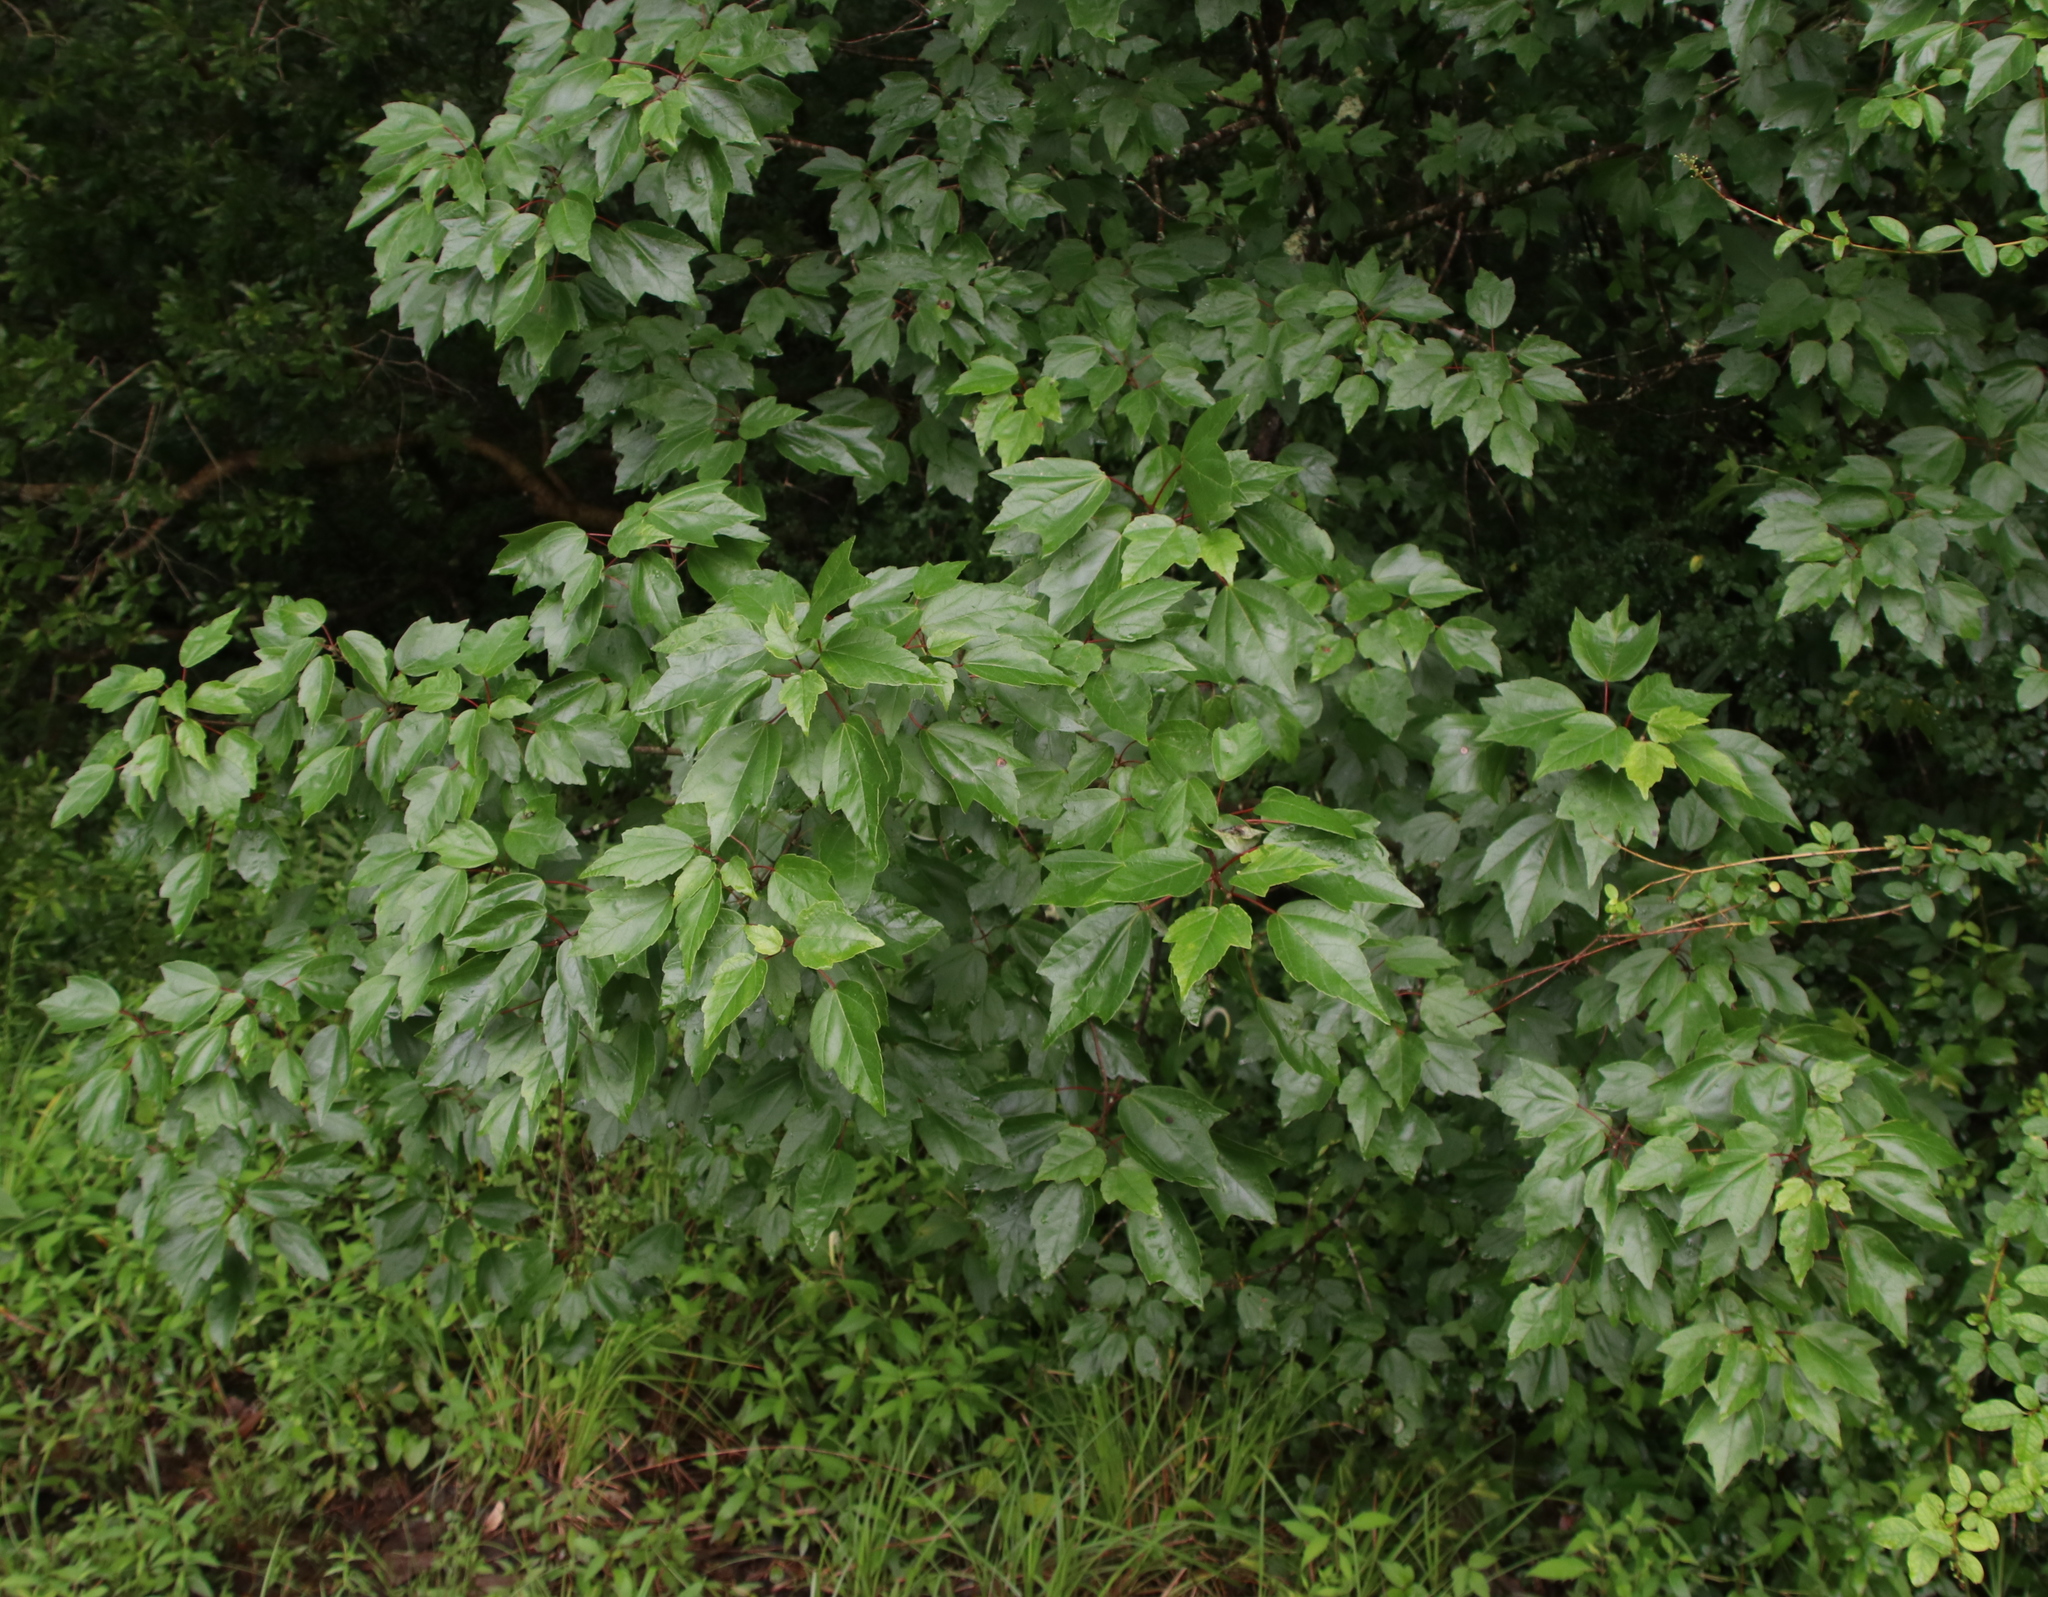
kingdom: Plantae
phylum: Tracheophyta
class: Magnoliopsida
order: Sapindales
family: Sapindaceae
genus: Acer
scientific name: Acer rubrum
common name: Red maple
